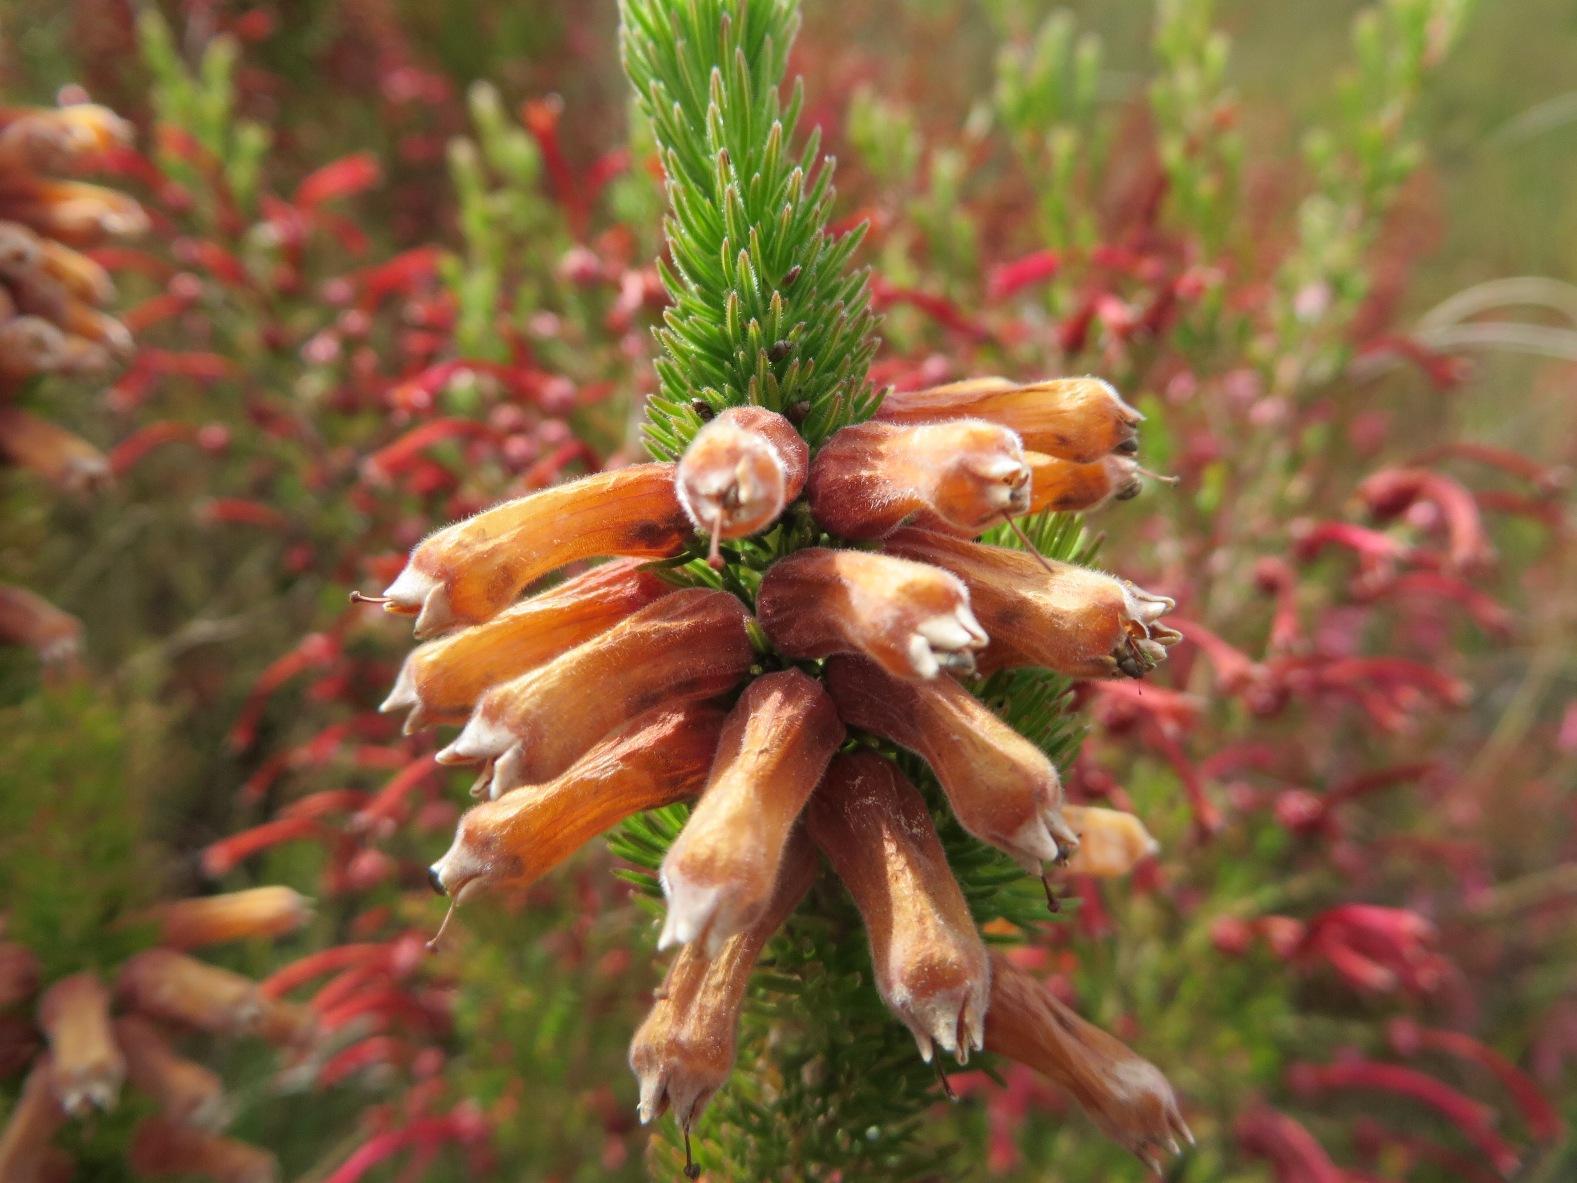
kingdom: Plantae
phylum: Tracheophyta
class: Magnoliopsida
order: Ericales
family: Ericaceae
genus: Erica
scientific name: Erica xanthina
